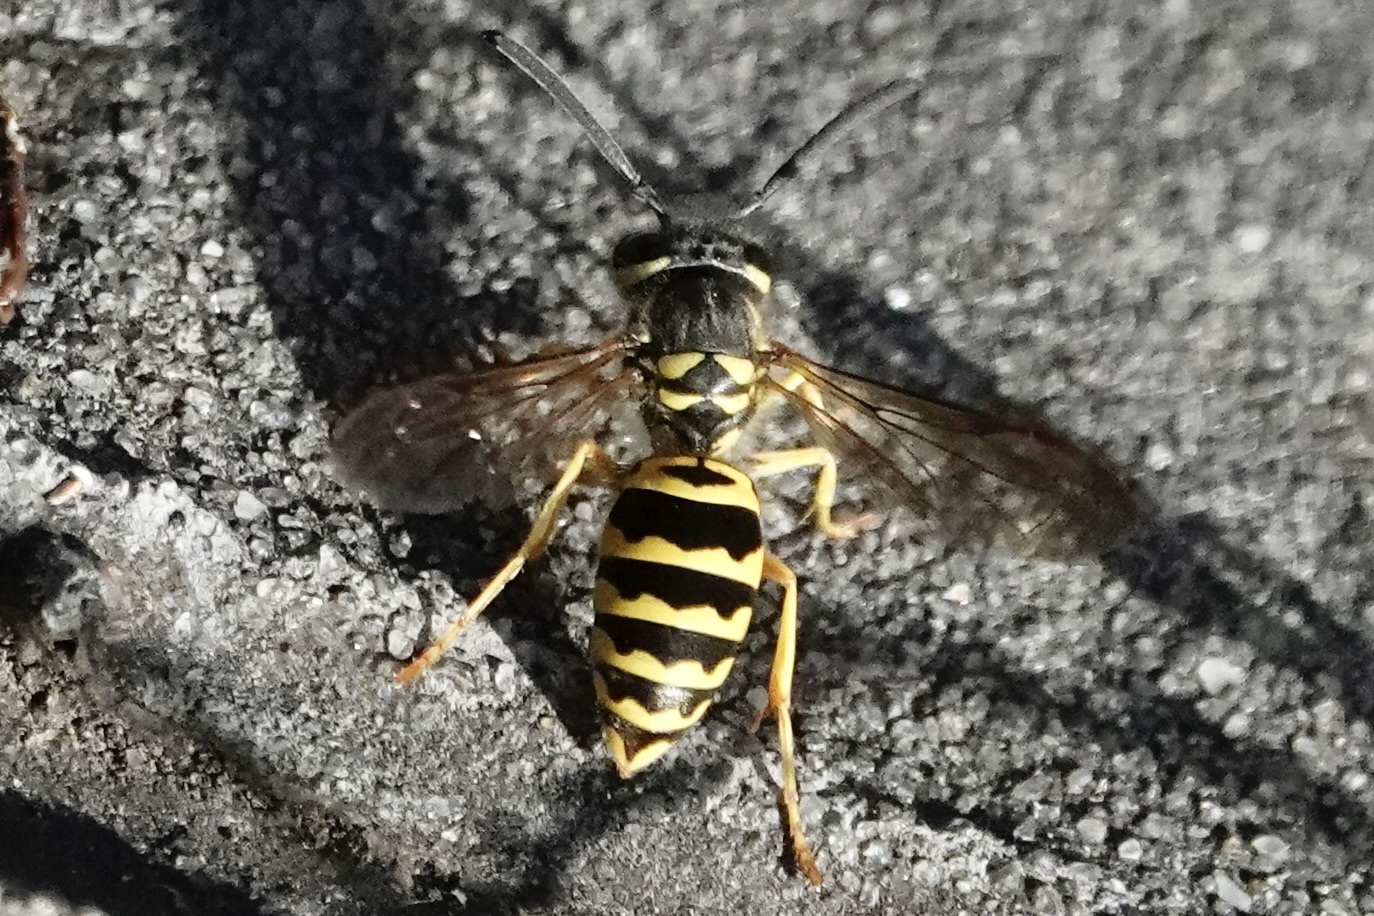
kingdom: Animalia
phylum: Arthropoda
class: Insecta
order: Hymenoptera
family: Vespidae
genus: Vespula
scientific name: Vespula maculifrons
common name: Eastern yellowjacket
